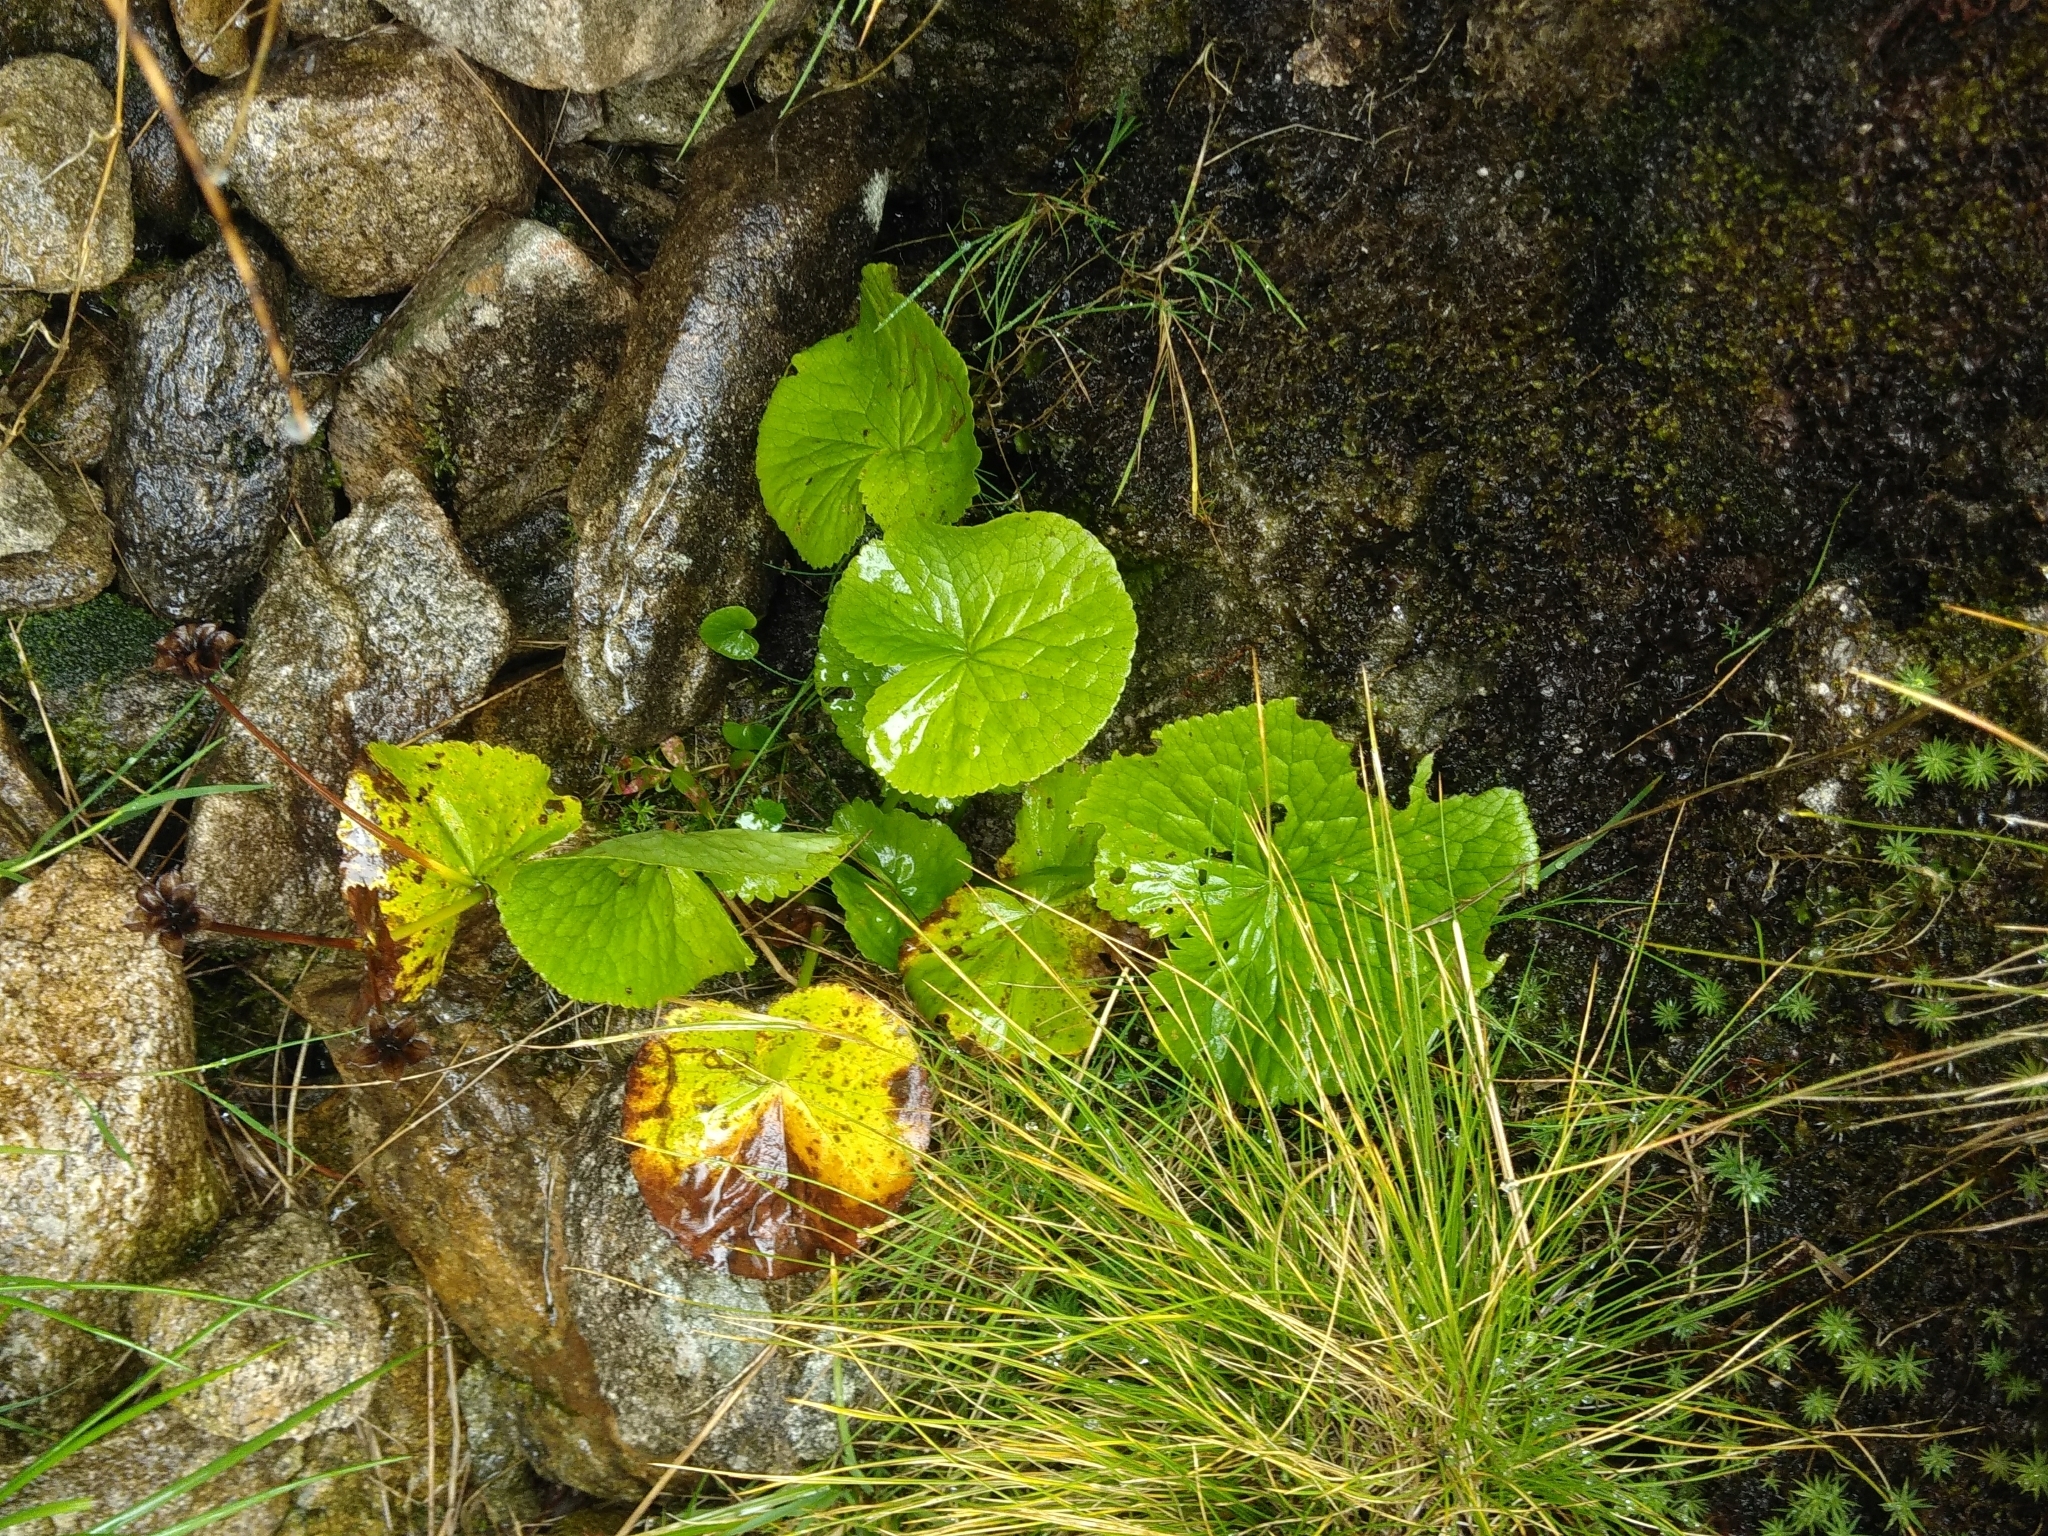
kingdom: Plantae
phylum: Tracheophyta
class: Magnoliopsida
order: Ranunculales
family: Ranunculaceae
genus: Caltha
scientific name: Caltha palustris
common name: Marsh marigold
